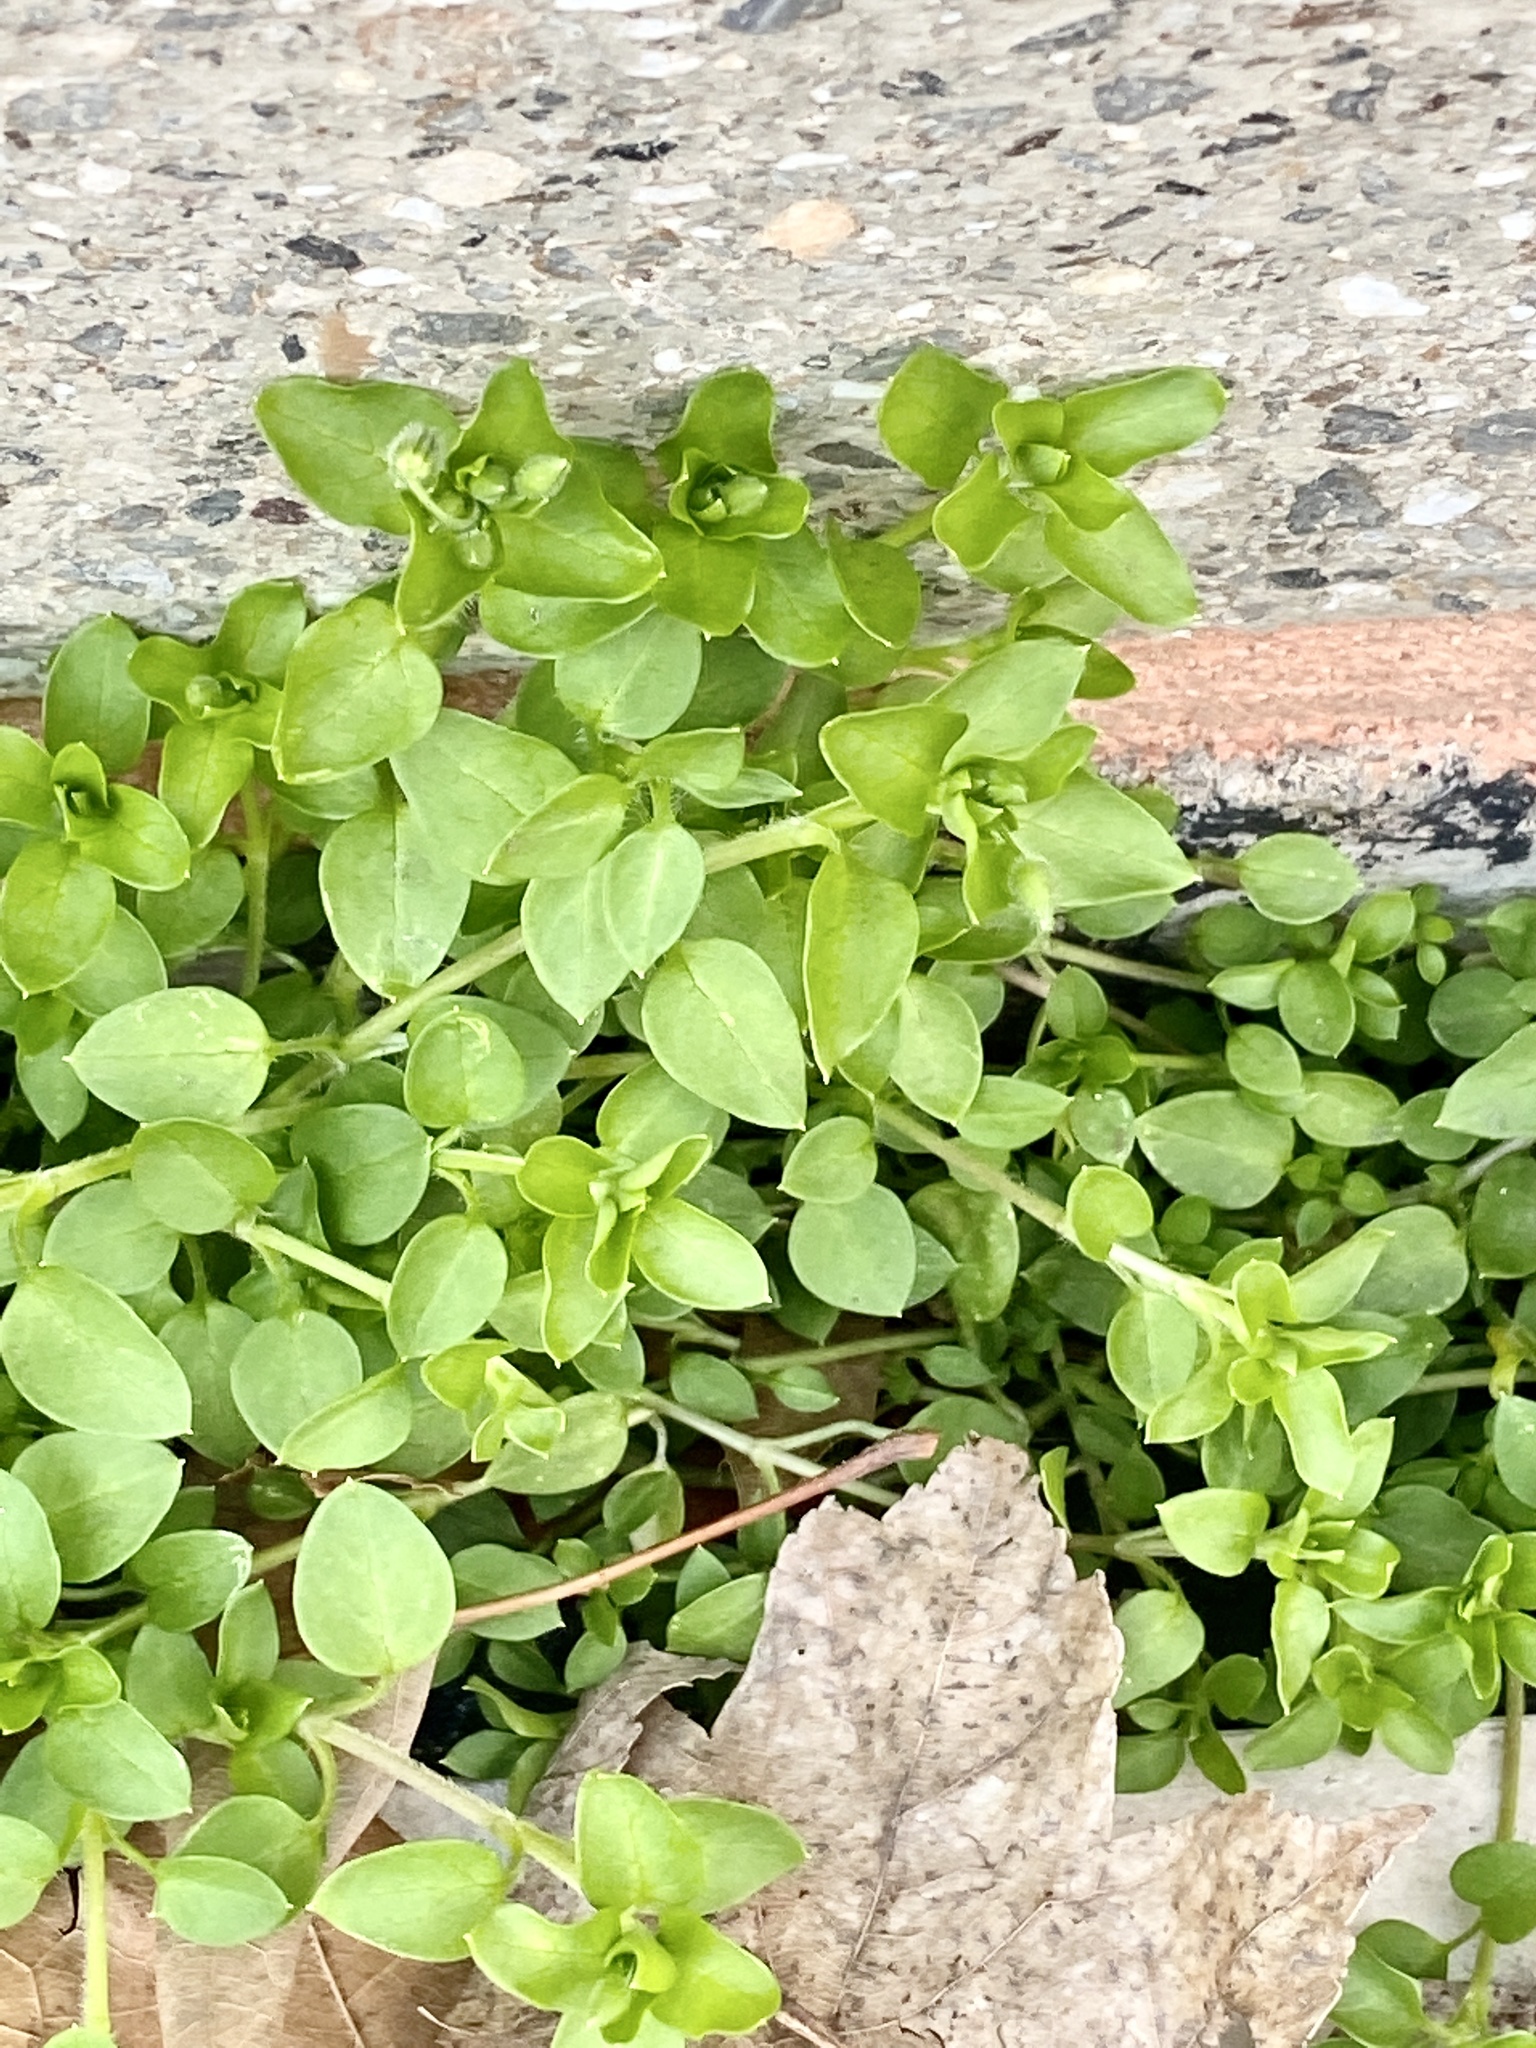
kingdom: Plantae
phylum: Tracheophyta
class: Magnoliopsida
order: Caryophyllales
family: Caryophyllaceae
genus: Stellaria
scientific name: Stellaria media
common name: Common chickweed
